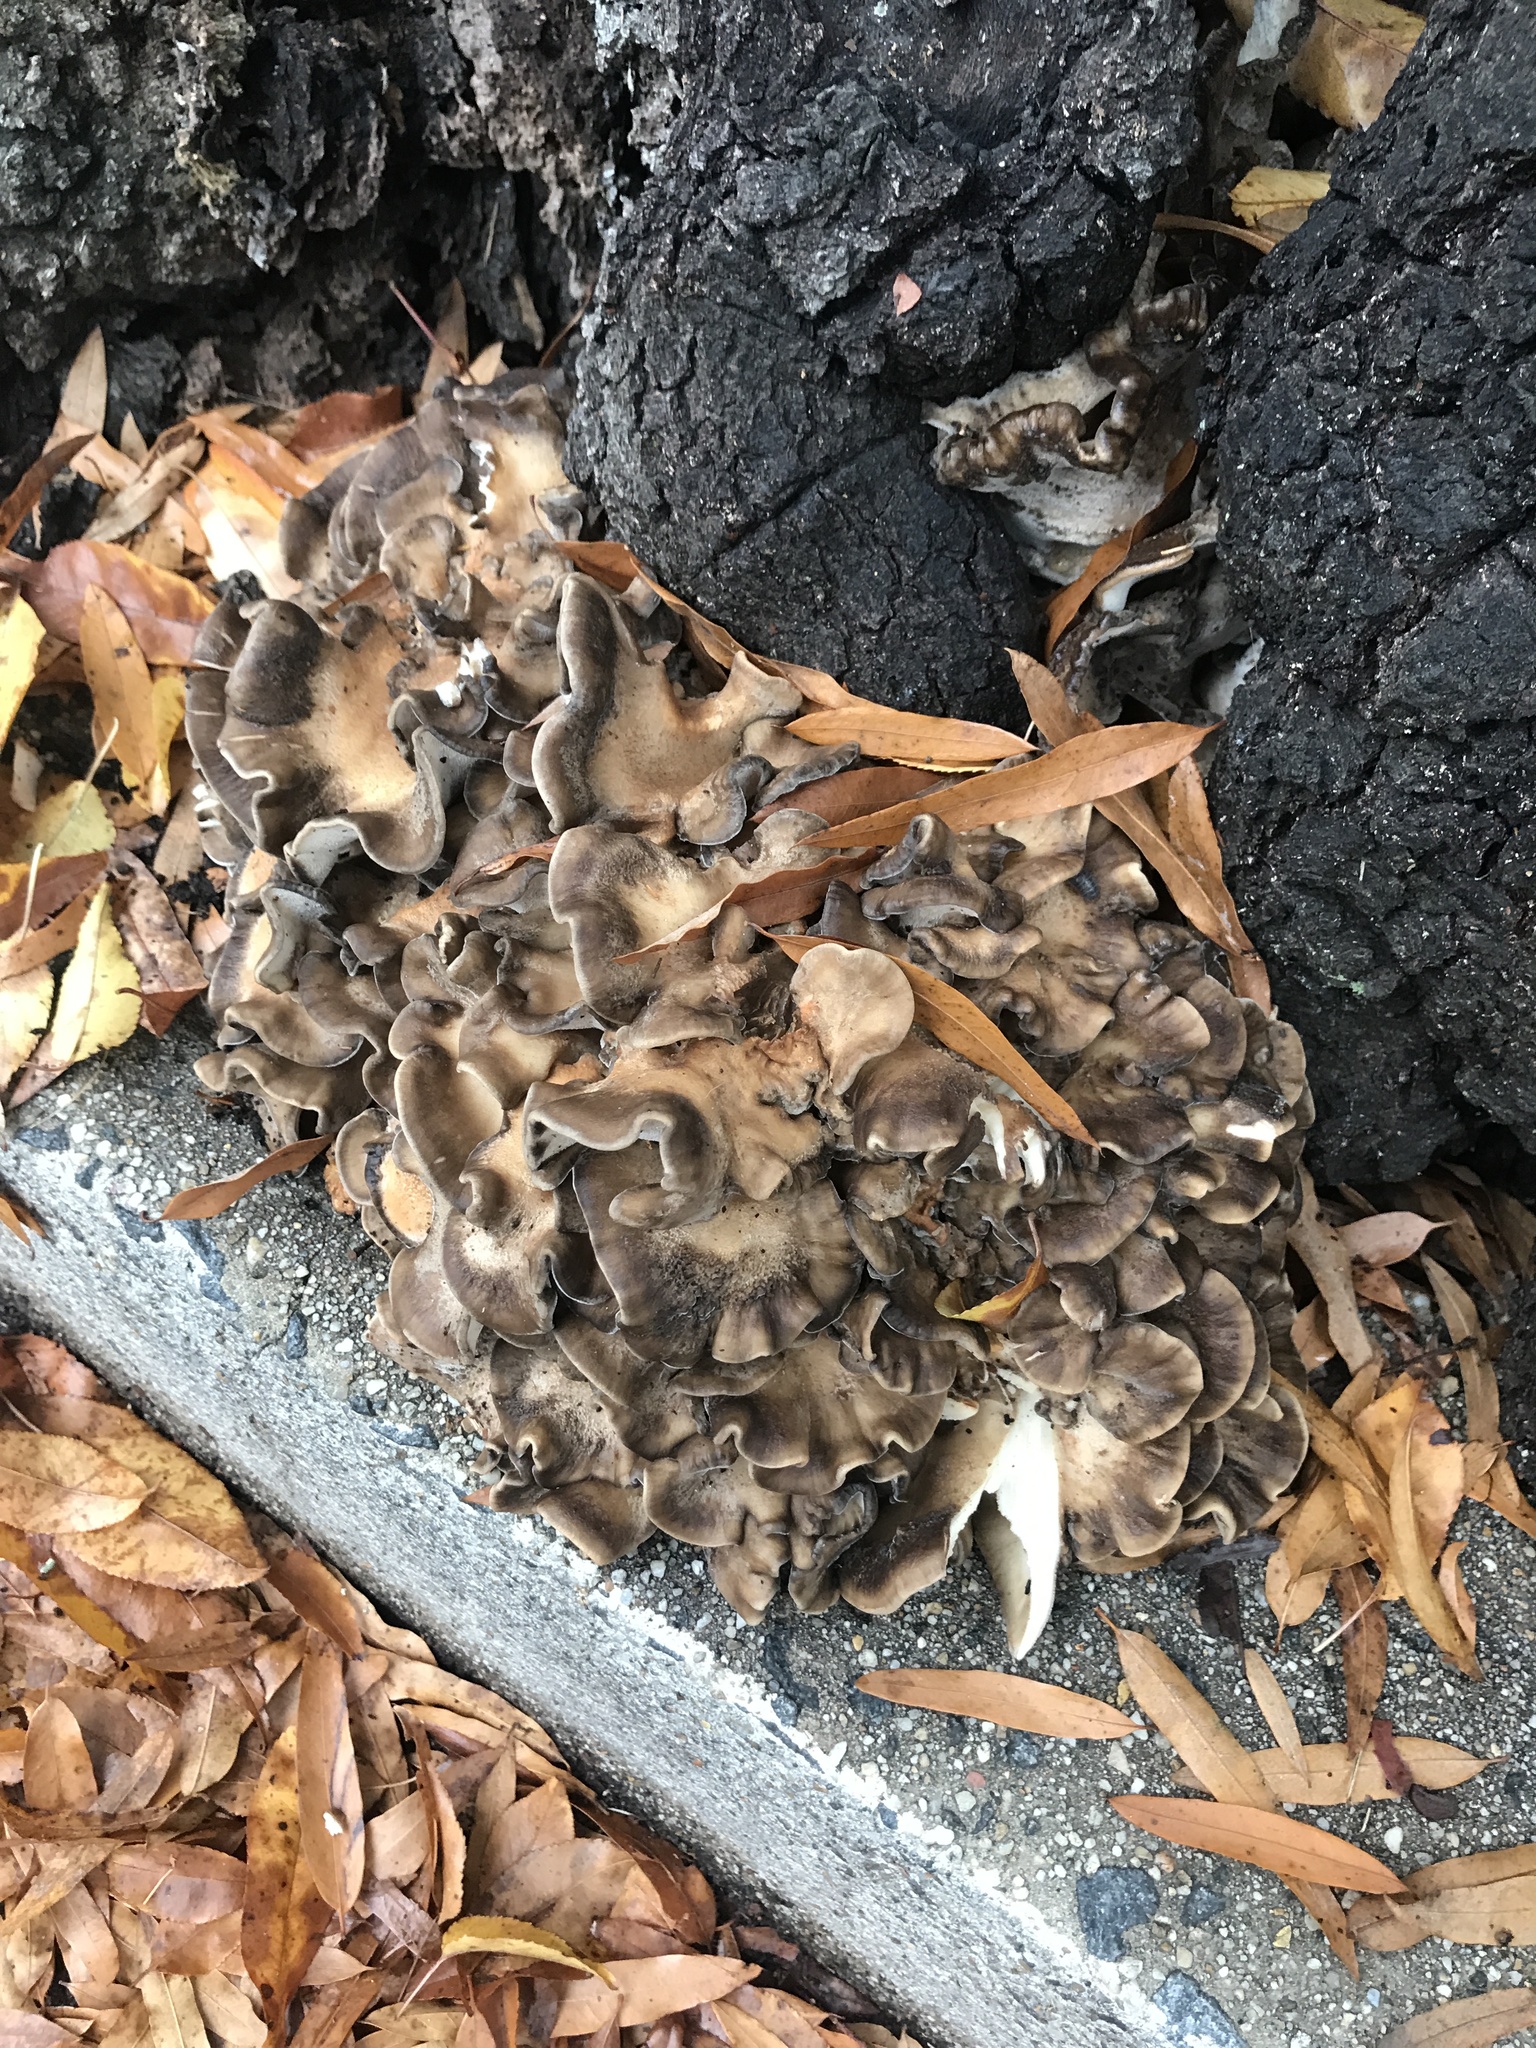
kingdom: Fungi
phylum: Basidiomycota
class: Agaricomycetes
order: Polyporales
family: Grifolaceae
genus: Grifola
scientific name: Grifola frondosa
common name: Hen of the woods
